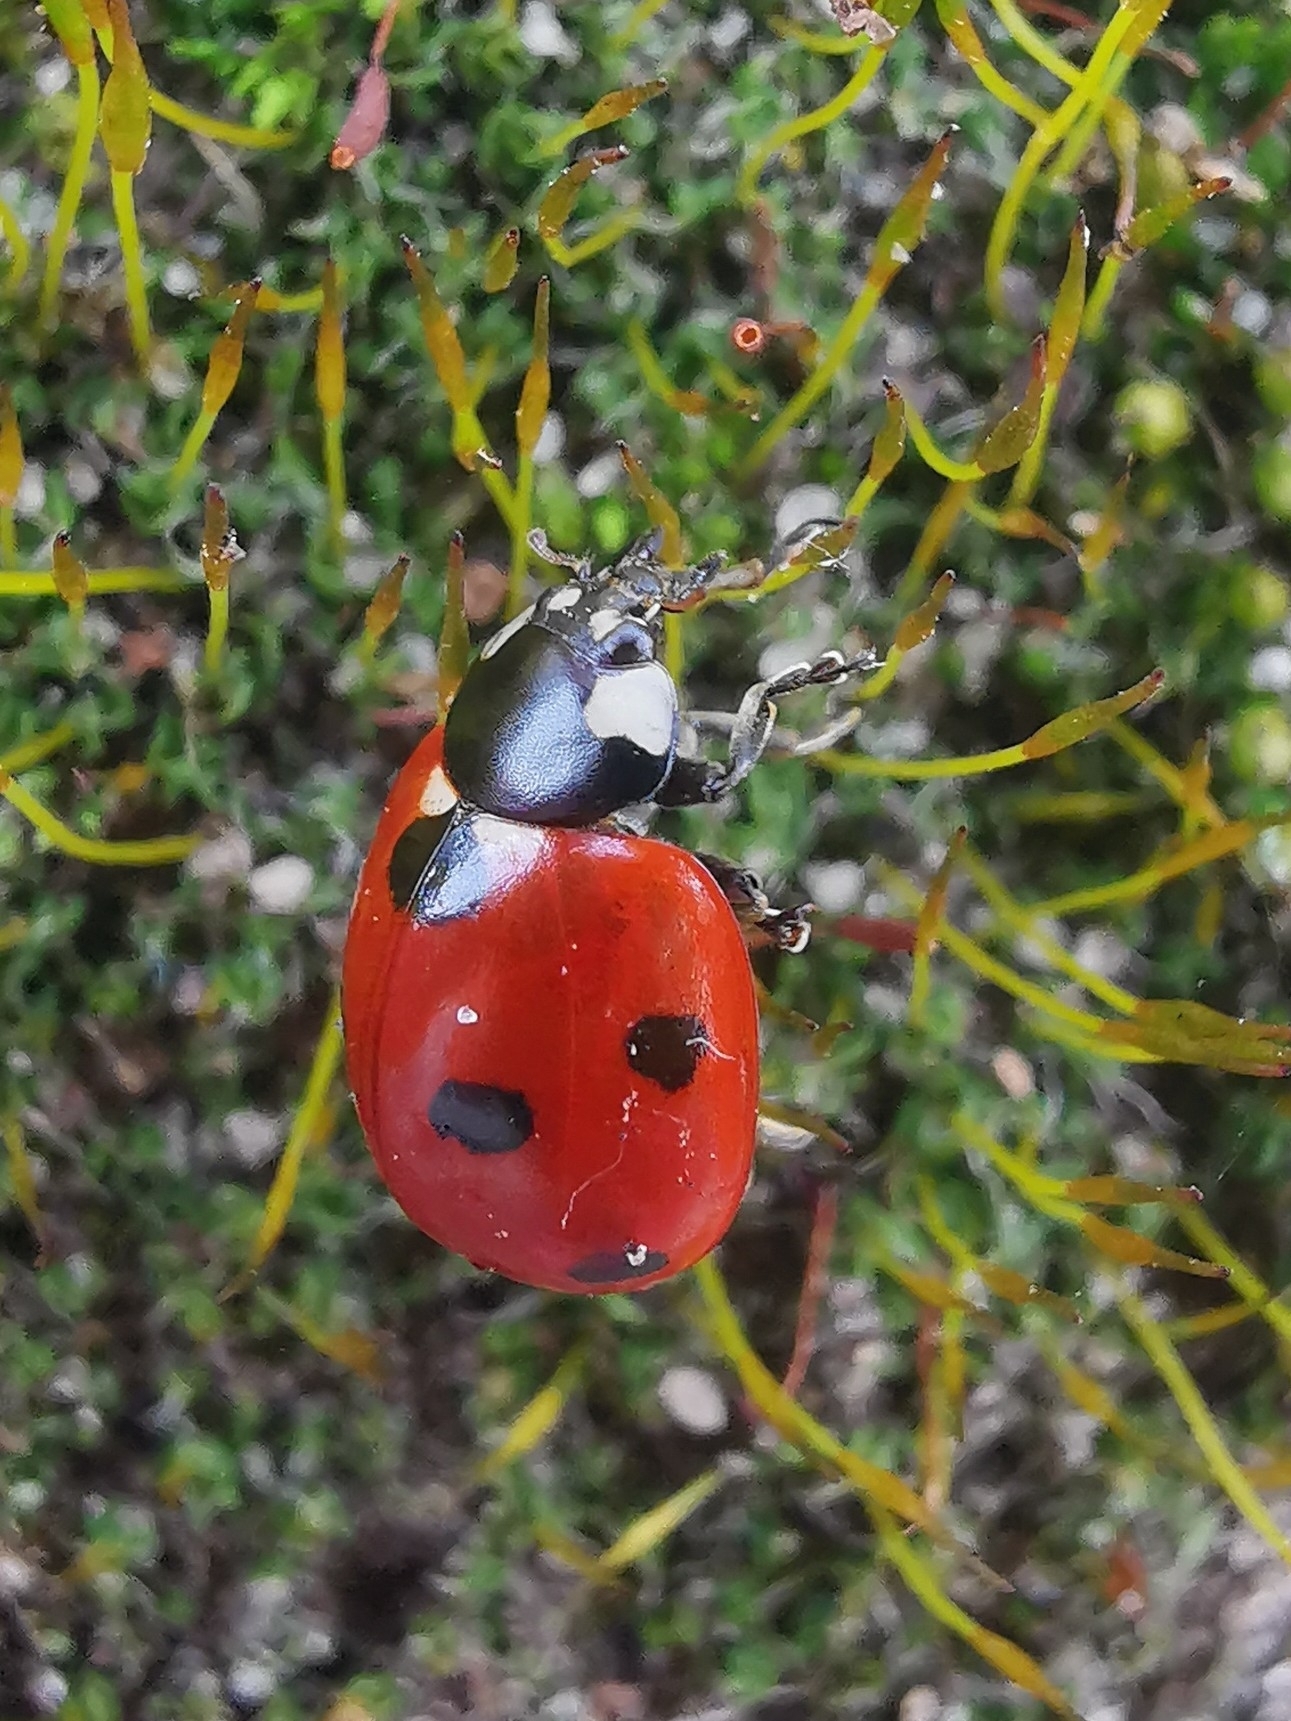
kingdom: Animalia
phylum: Arthropoda
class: Insecta
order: Coleoptera
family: Coccinellidae
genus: Coccinella
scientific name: Coccinella septempunctata
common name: Sevenspotted lady beetle
